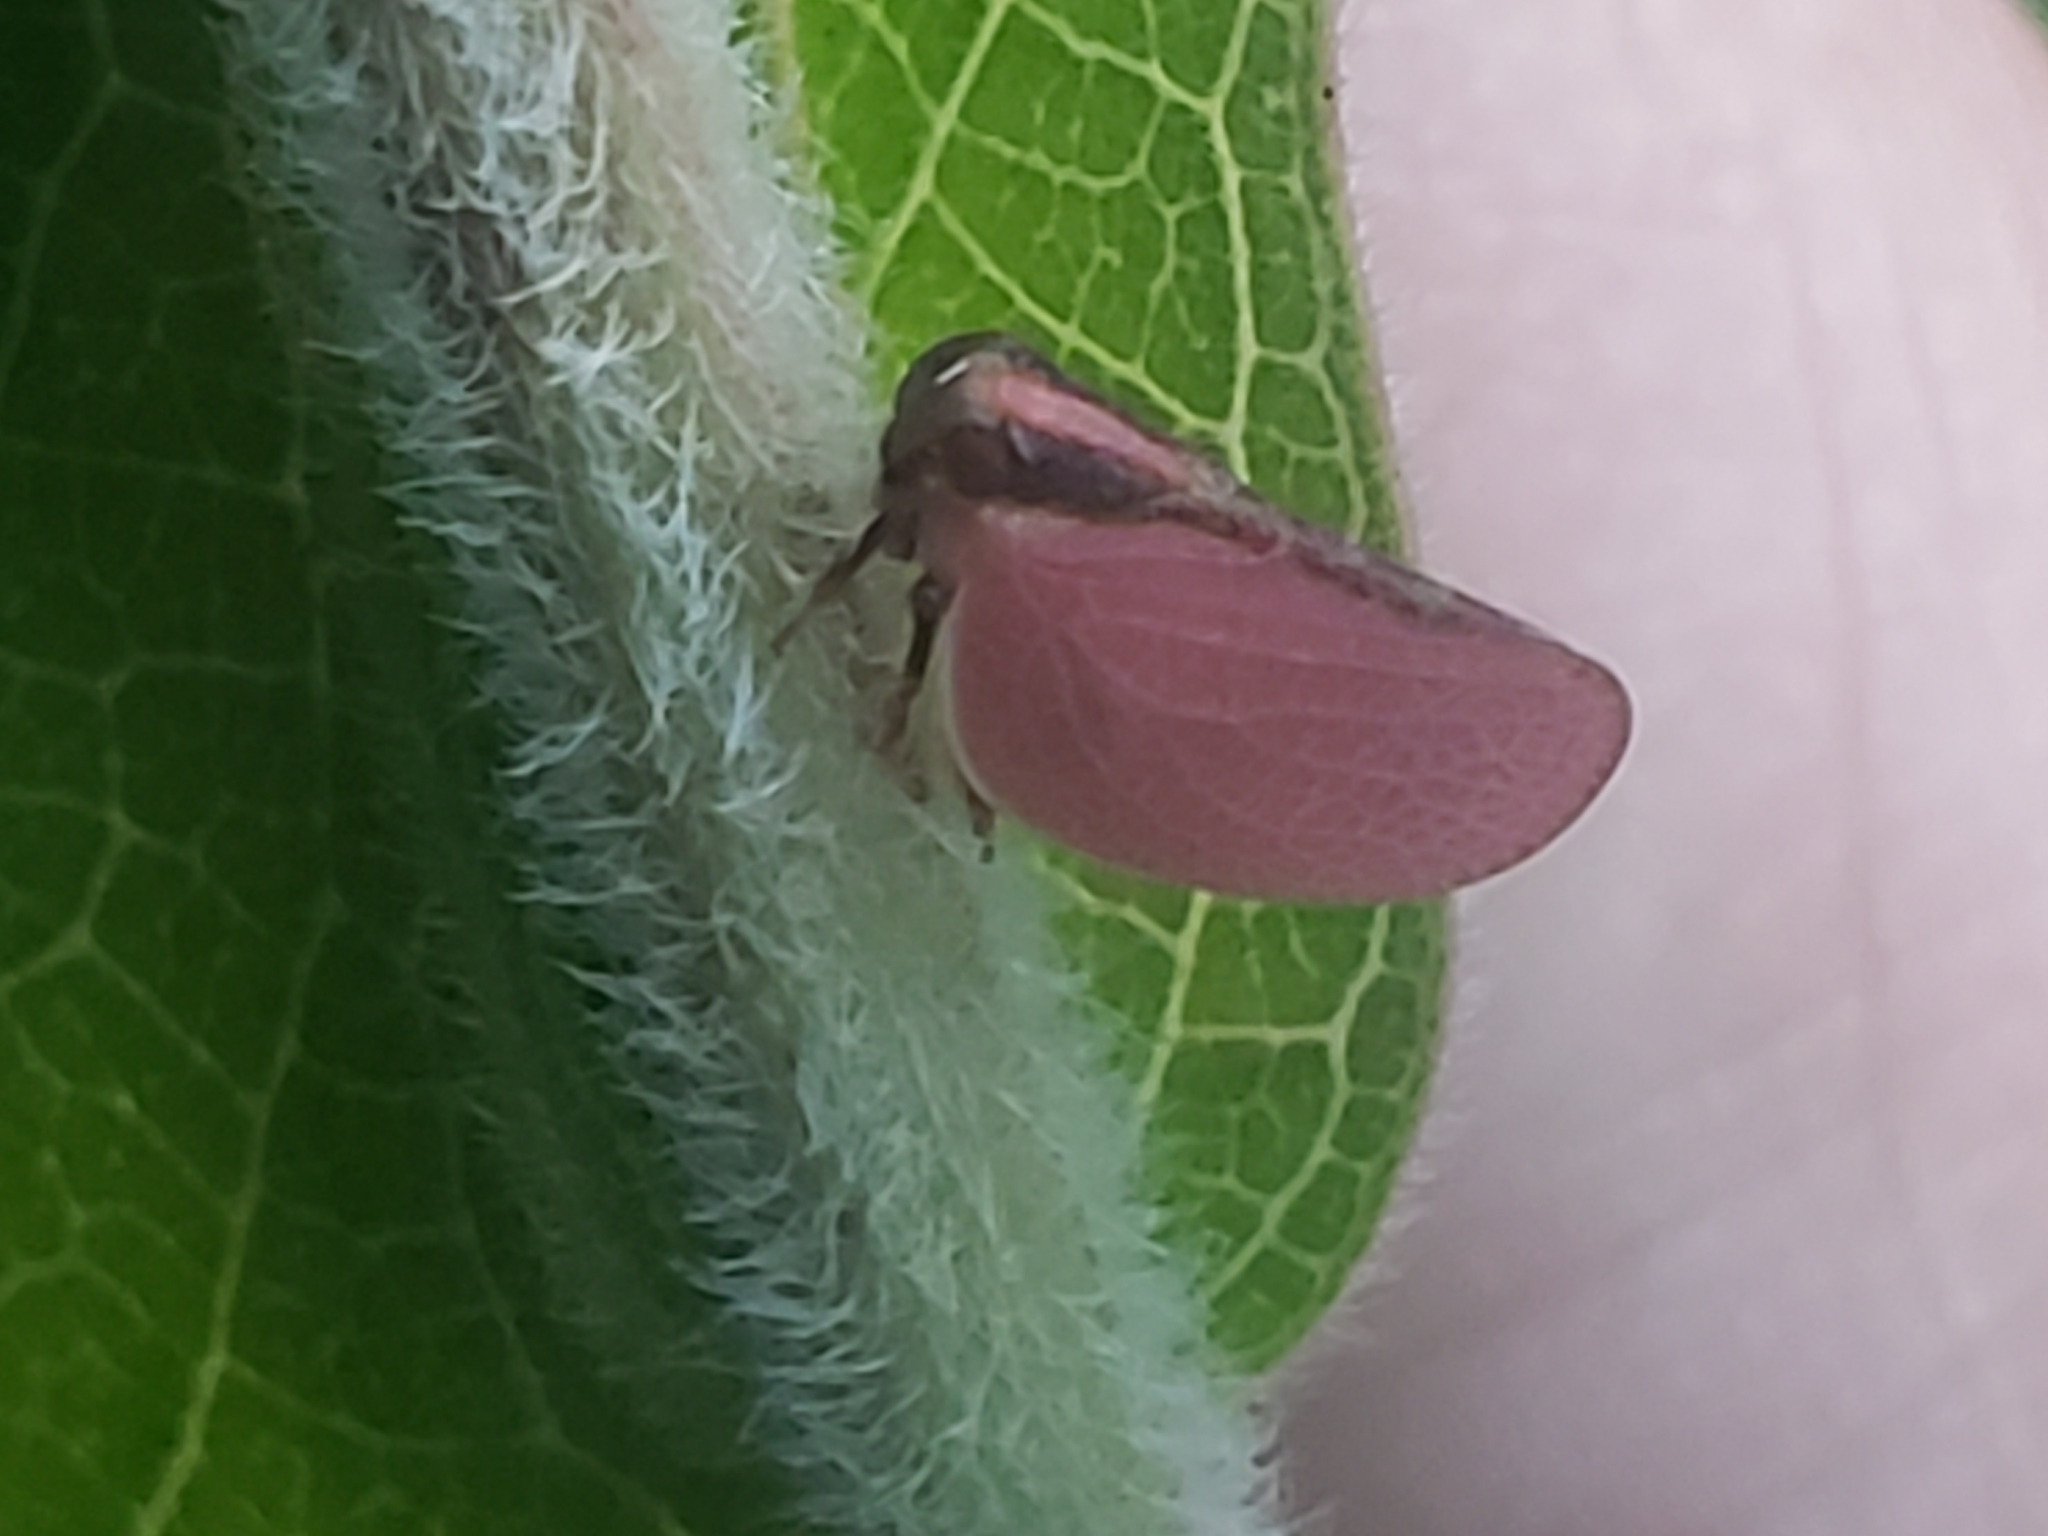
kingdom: Animalia
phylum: Arthropoda
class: Insecta
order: Hemiptera
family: Acanaloniidae
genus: Acanalonia
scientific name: Acanalonia bivittata
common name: Two-striped planthopper
